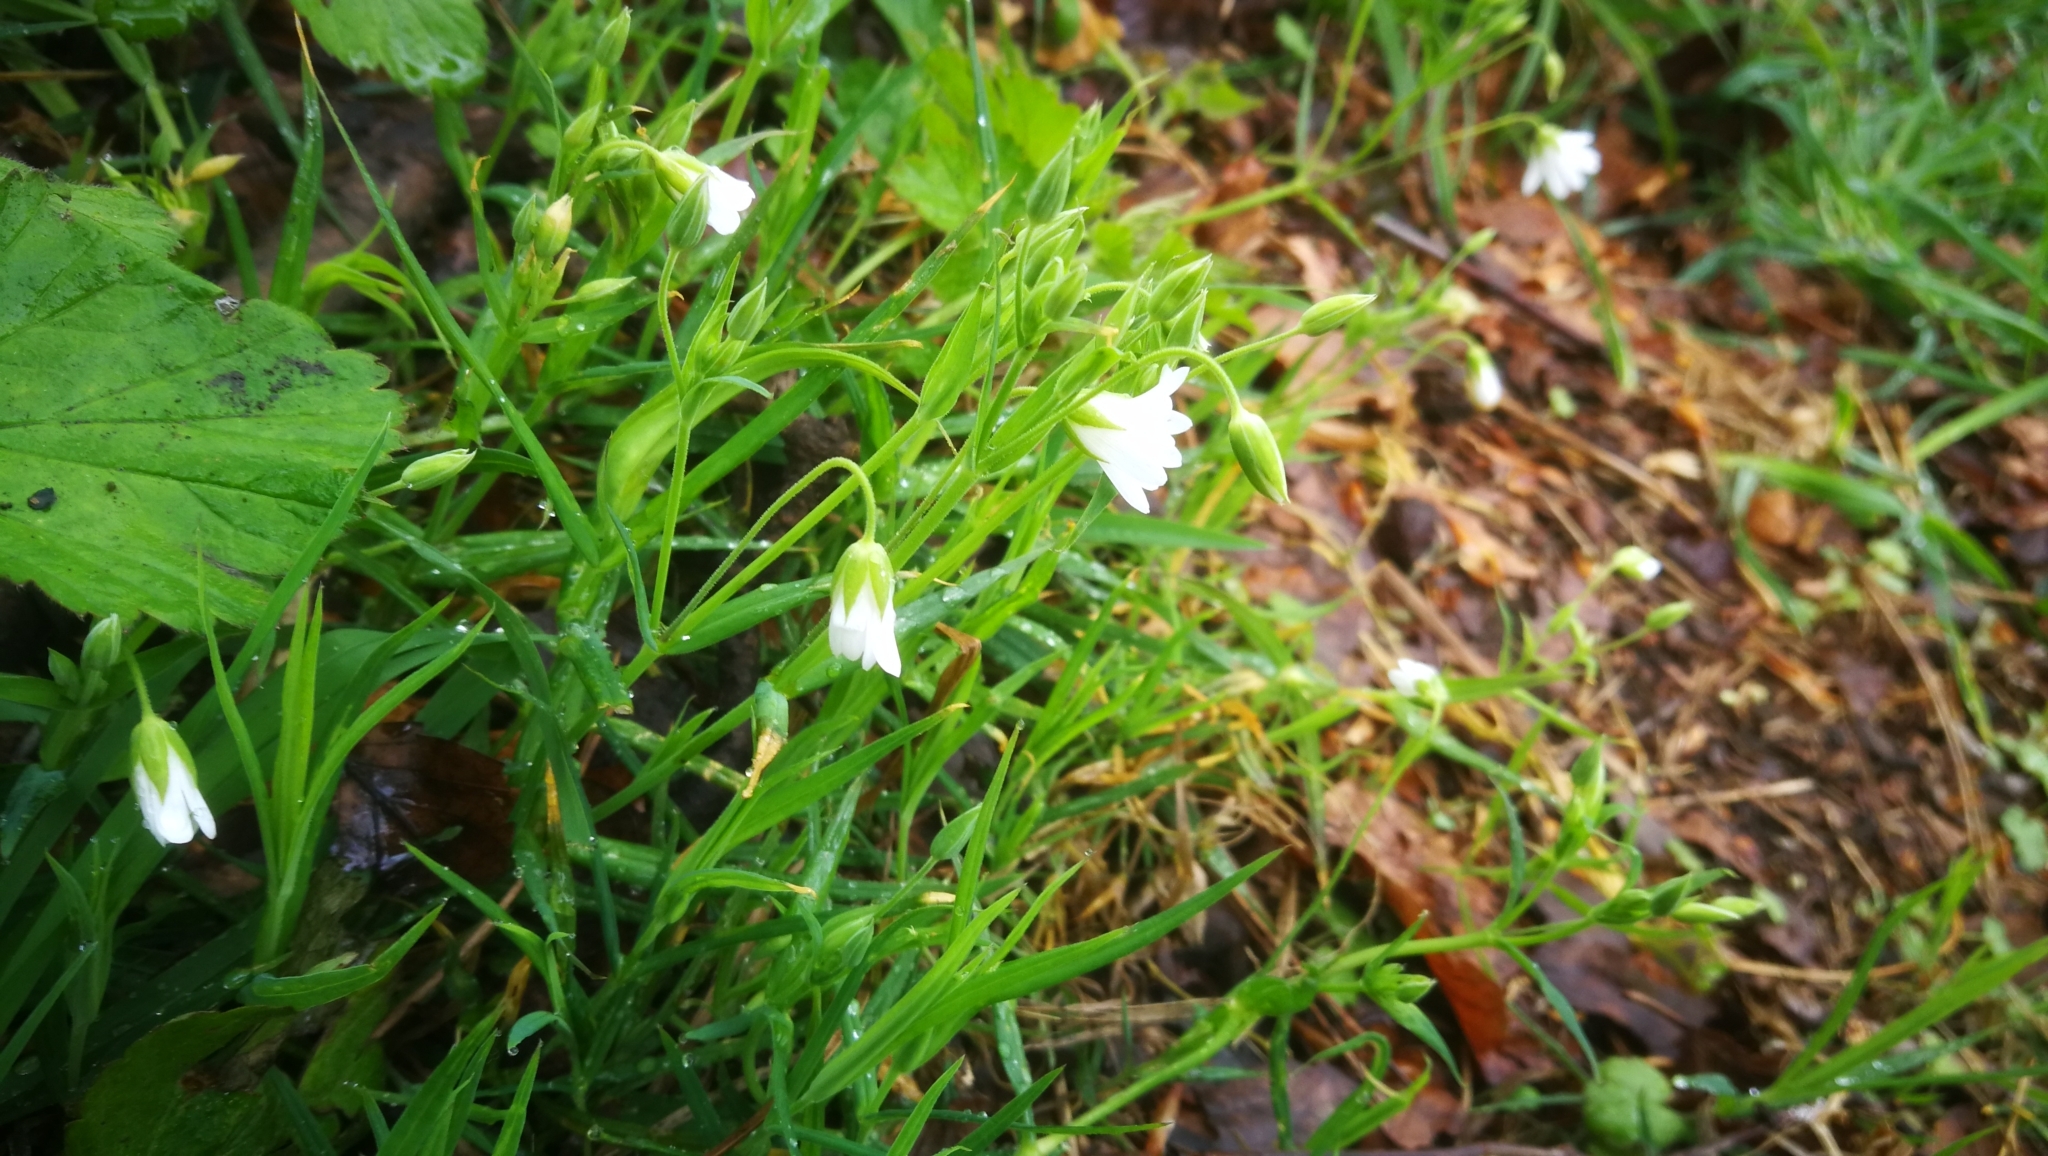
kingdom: Plantae
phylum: Tracheophyta
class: Magnoliopsida
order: Caryophyllales
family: Caryophyllaceae
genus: Rabelera
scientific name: Rabelera holostea
